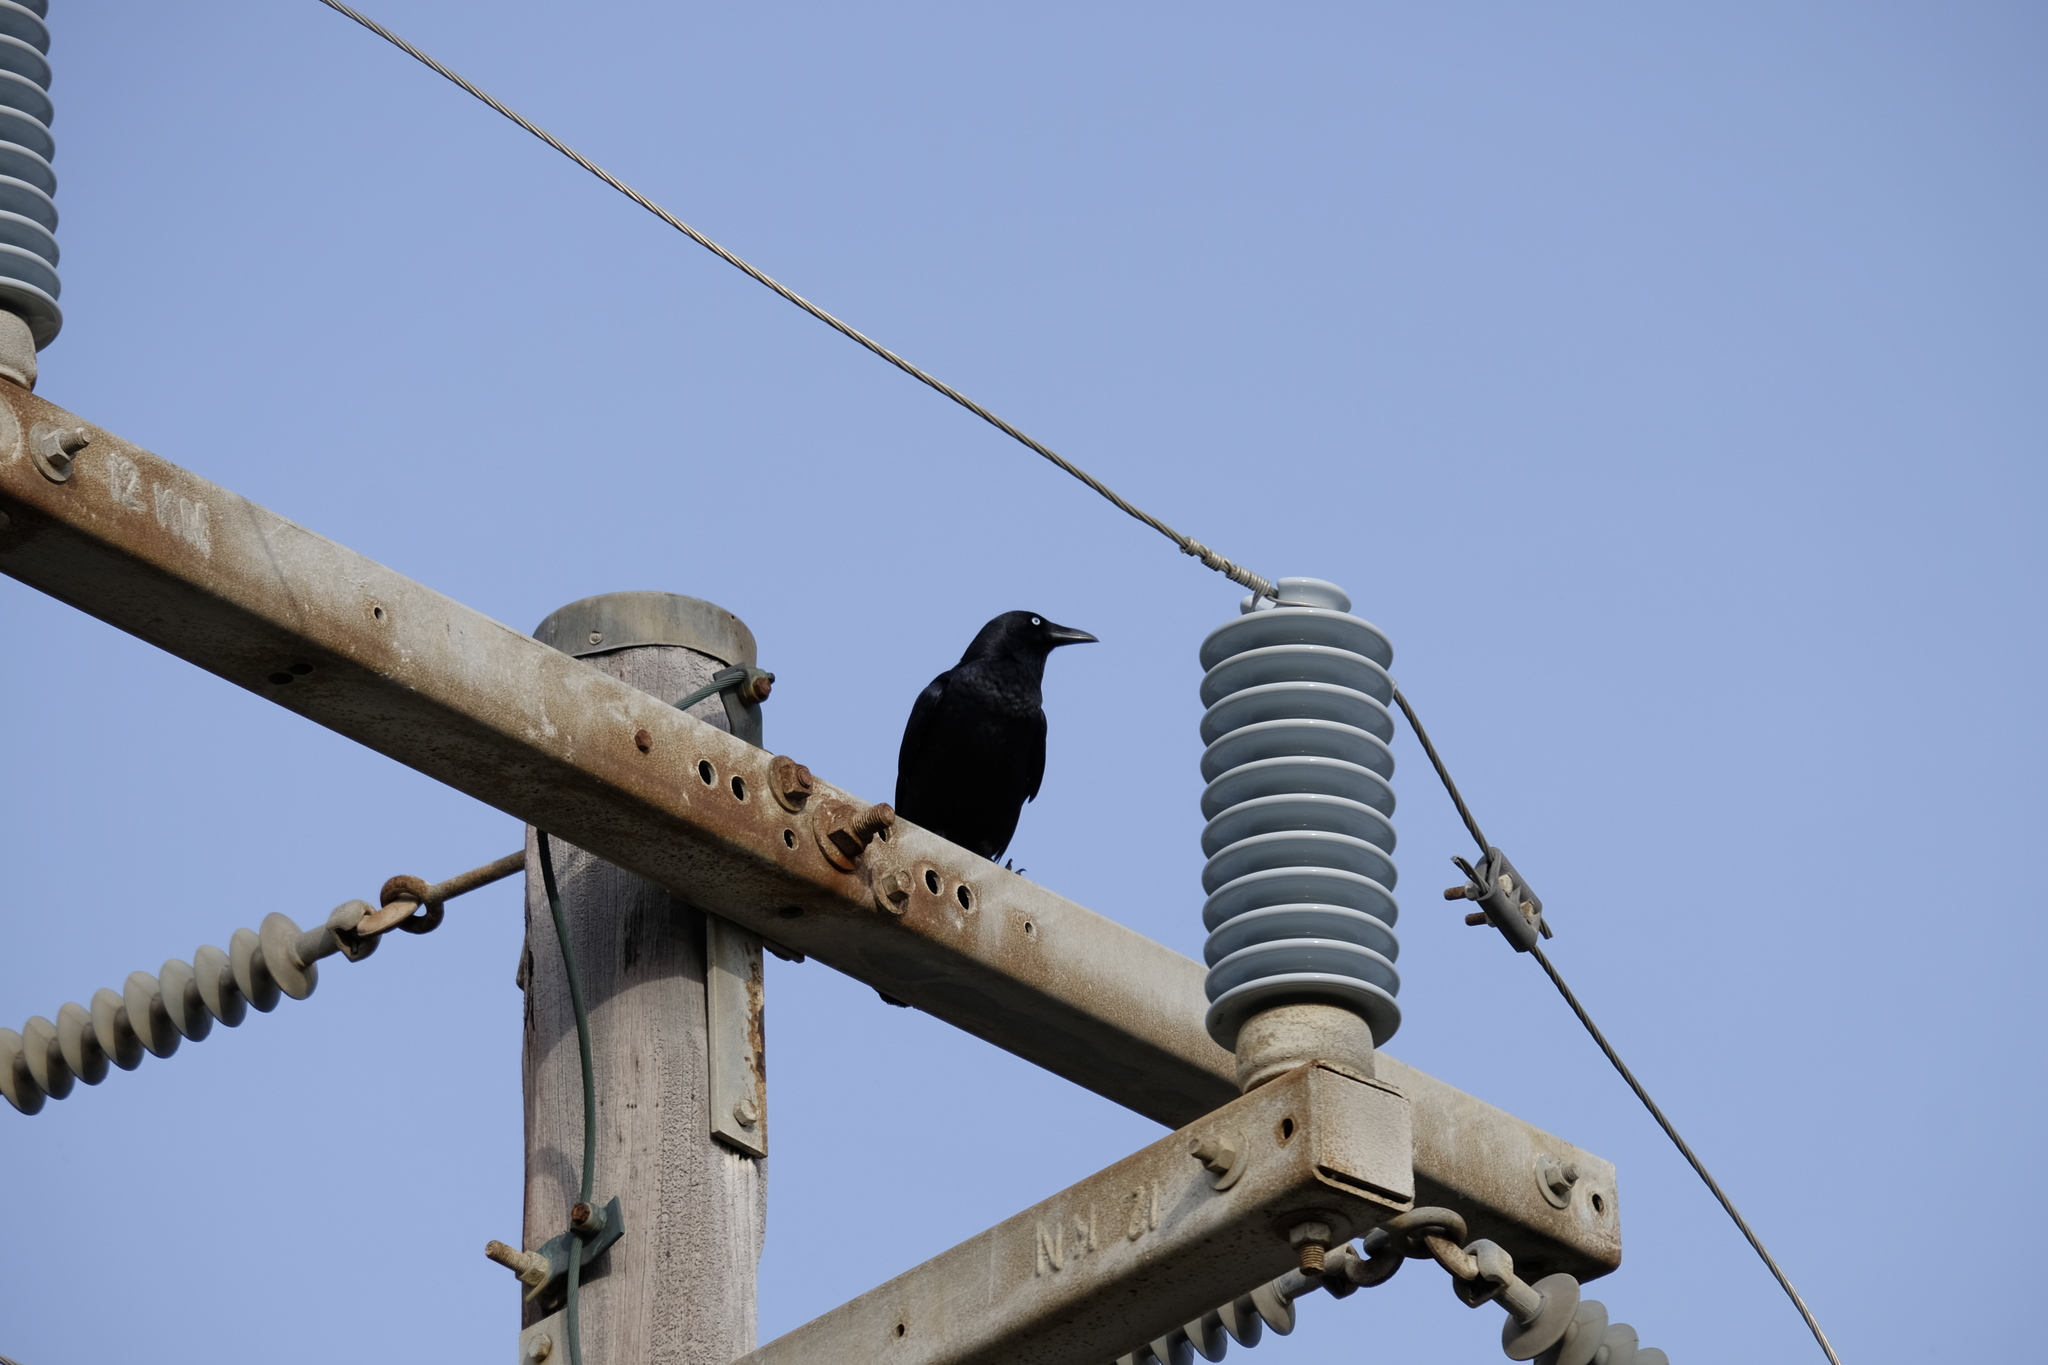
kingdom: Animalia
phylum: Chordata
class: Aves
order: Passeriformes
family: Corvidae
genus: Corvus
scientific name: Corvus mellori
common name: Little raven
